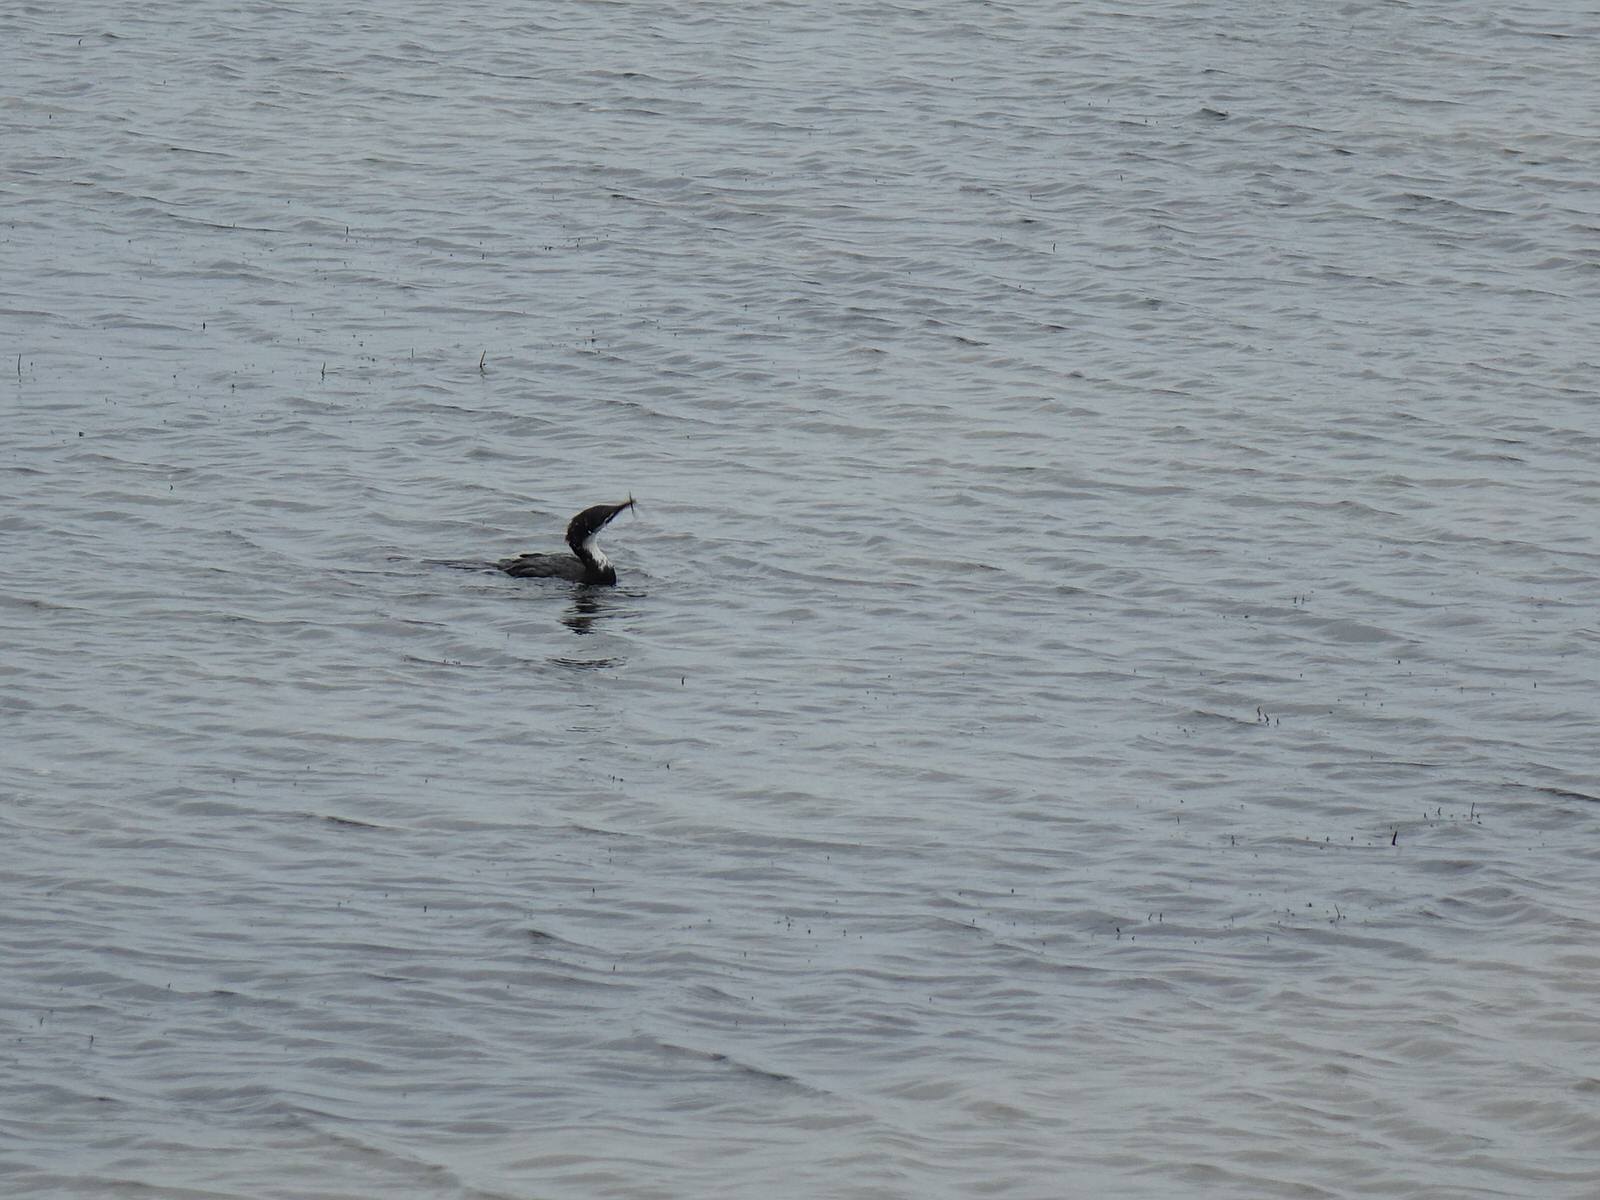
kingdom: Animalia
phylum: Chordata
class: Aves
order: Suliformes
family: Phalacrocoracidae
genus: Microcarbo
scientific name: Microcarbo melanoleucos
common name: Little pied cormorant
